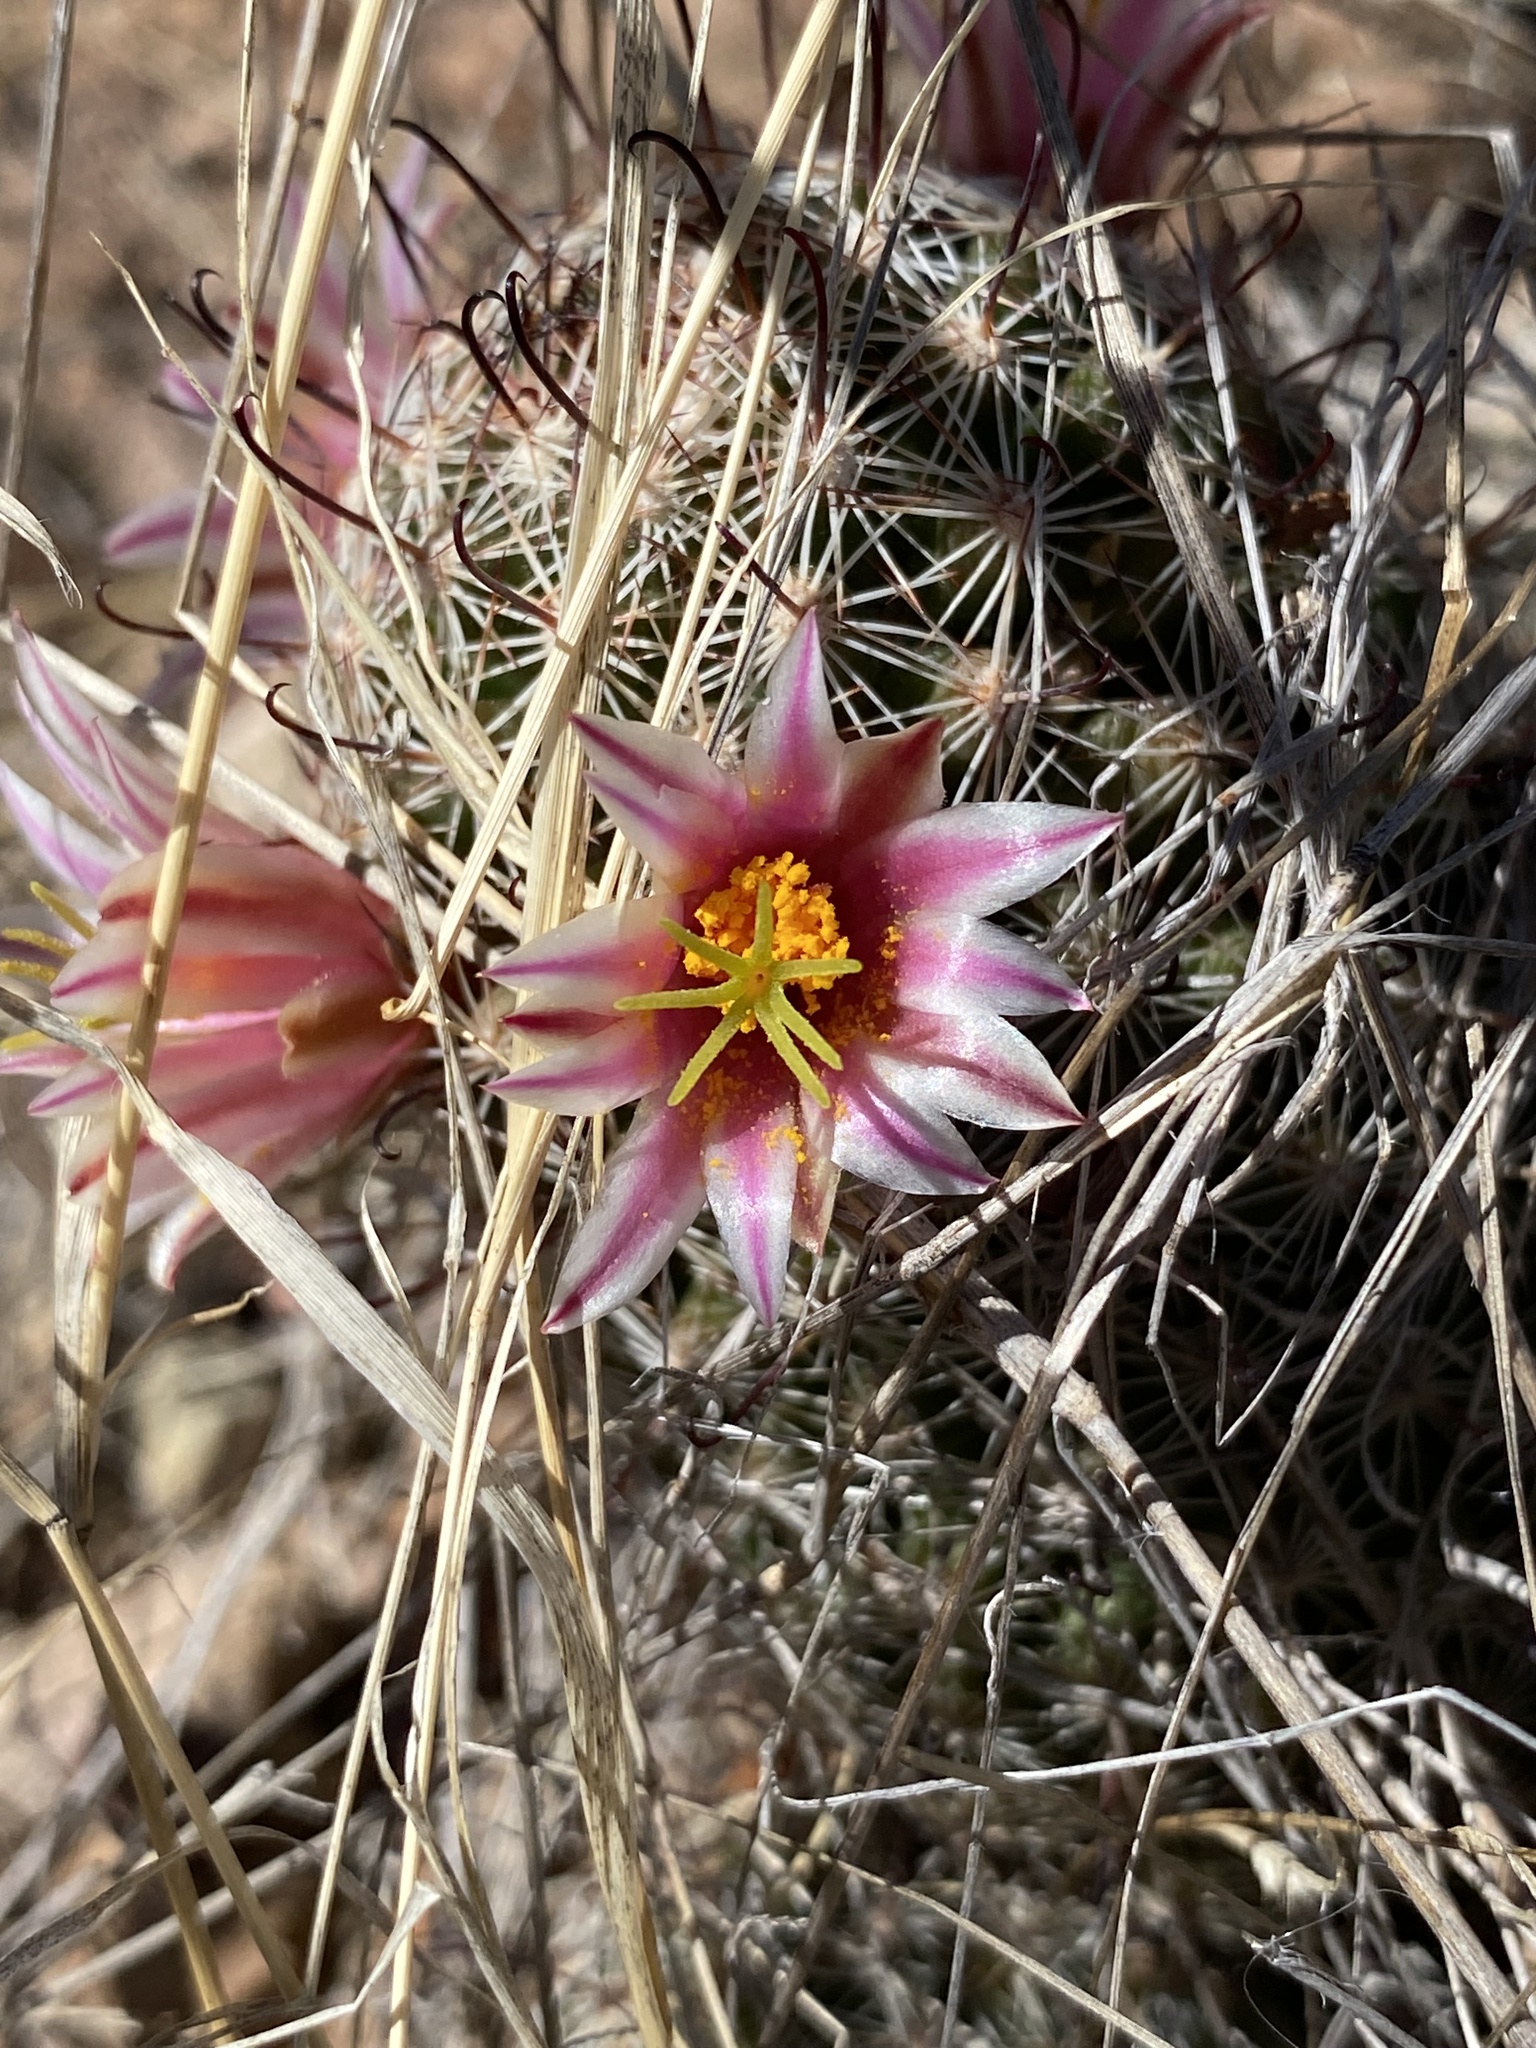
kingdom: Plantae
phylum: Tracheophyta
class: Magnoliopsida
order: Caryophyllales
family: Cactaceae
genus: Cochemiea
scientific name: Cochemiea grahamii
